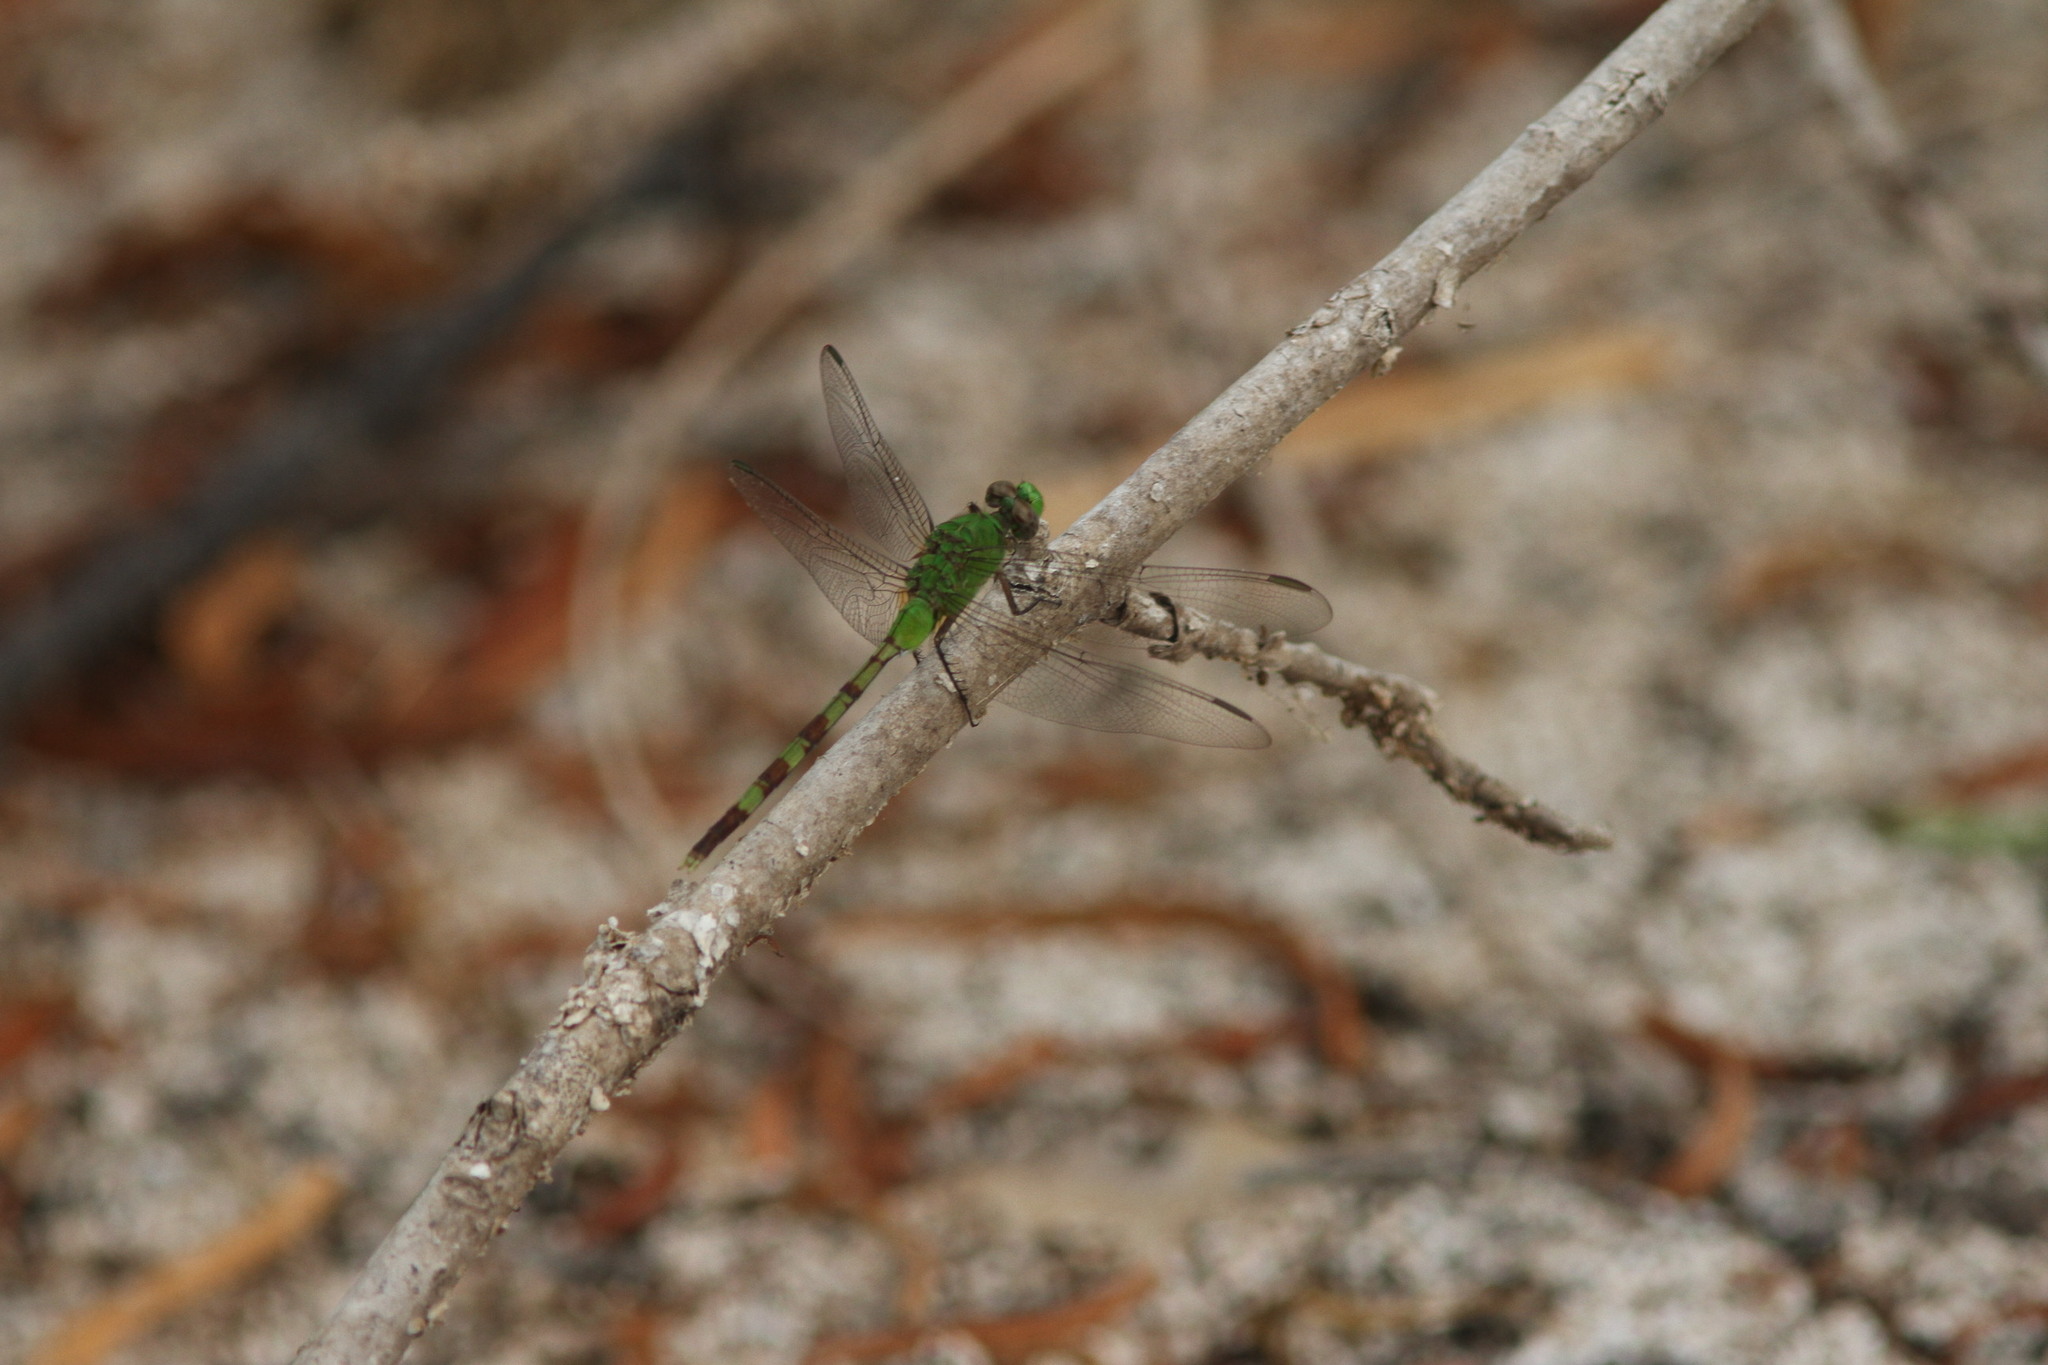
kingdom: Animalia
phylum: Arthropoda
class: Insecta
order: Odonata
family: Libellulidae
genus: Erythemis
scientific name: Erythemis vesiculosa
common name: Great pondhawk
